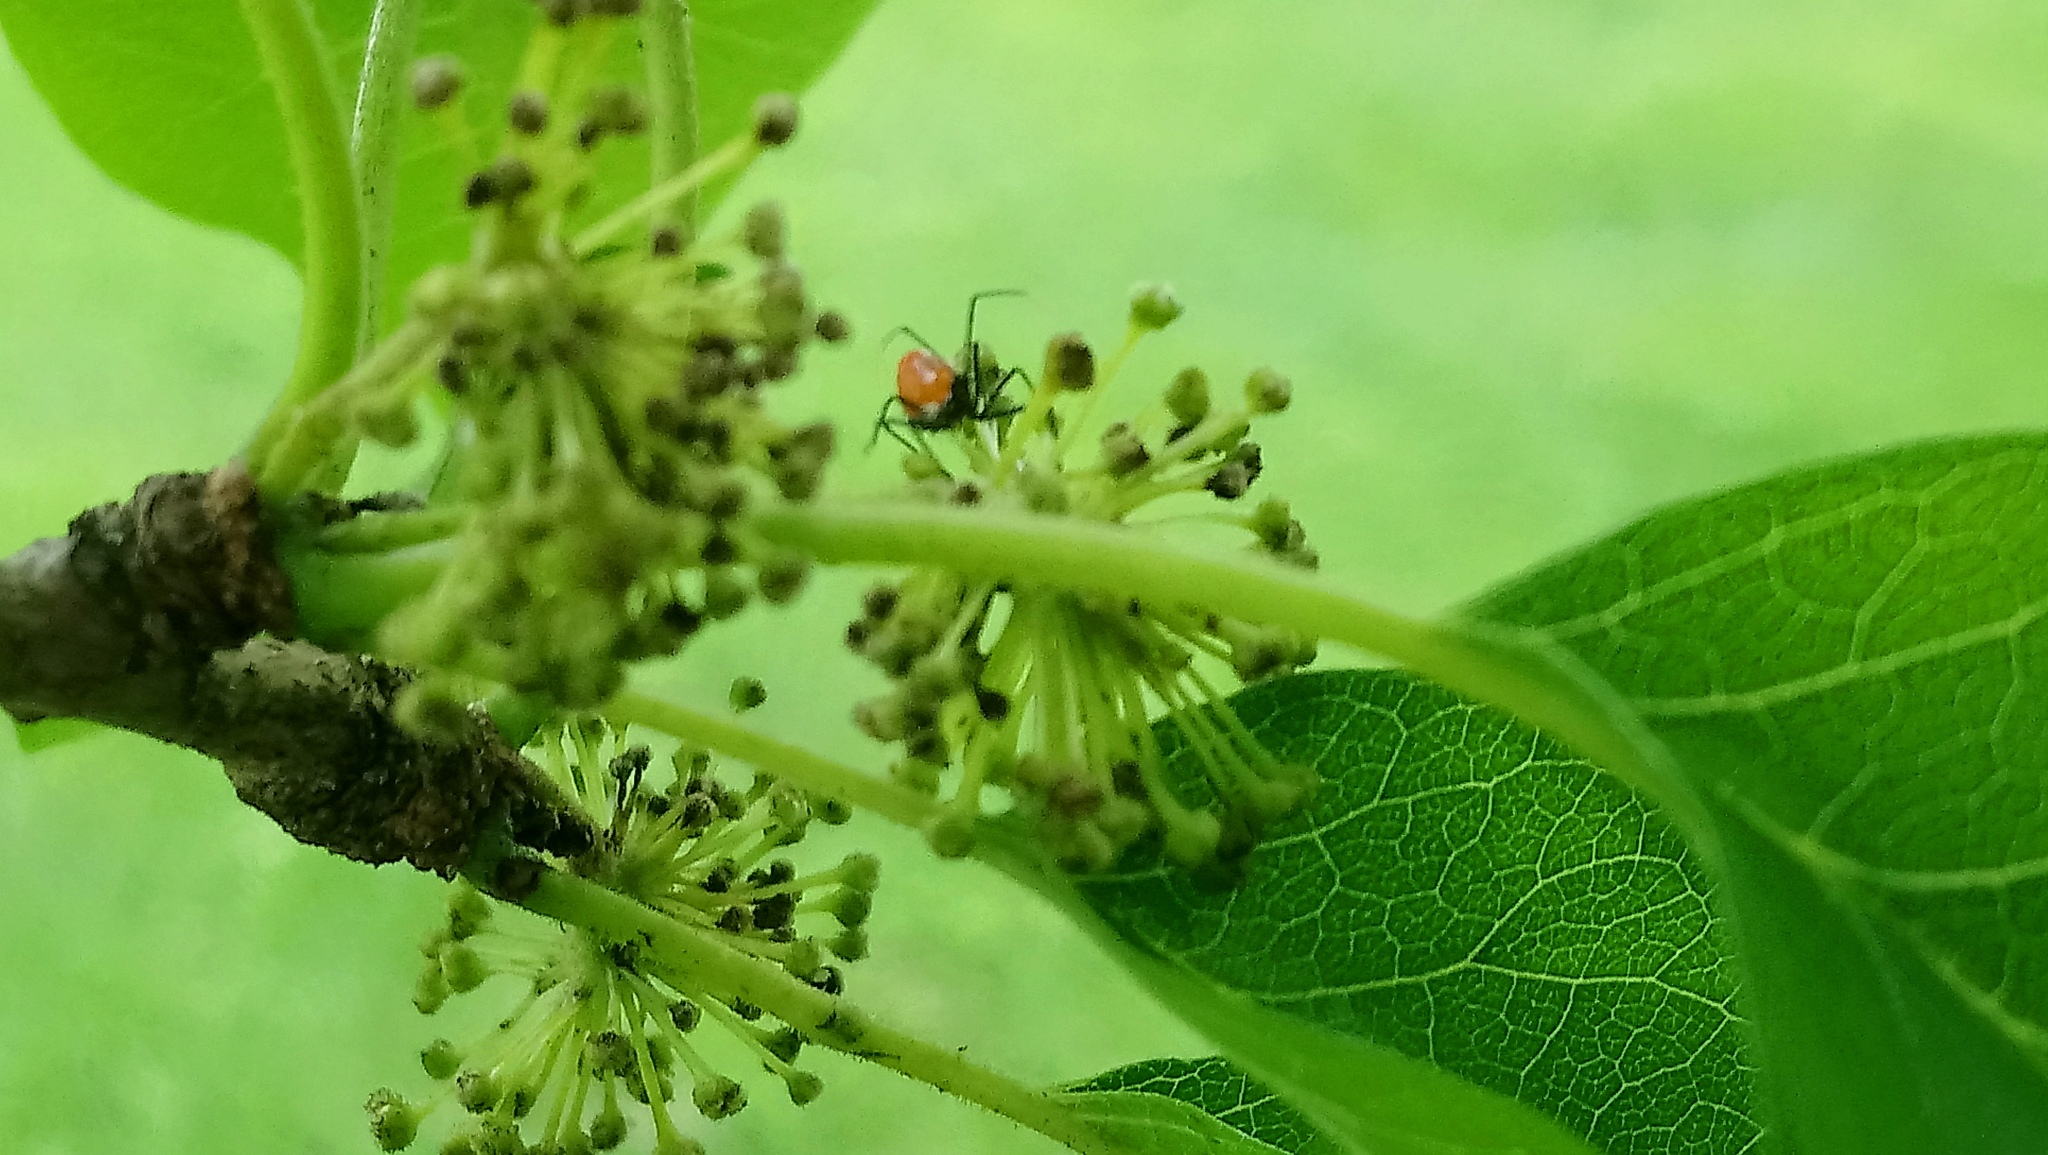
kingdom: Animalia
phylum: Arthropoda
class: Insecta
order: Hemiptera
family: Reduviidae
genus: Arilus
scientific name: Arilus cristatus
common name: North american wheel bug
